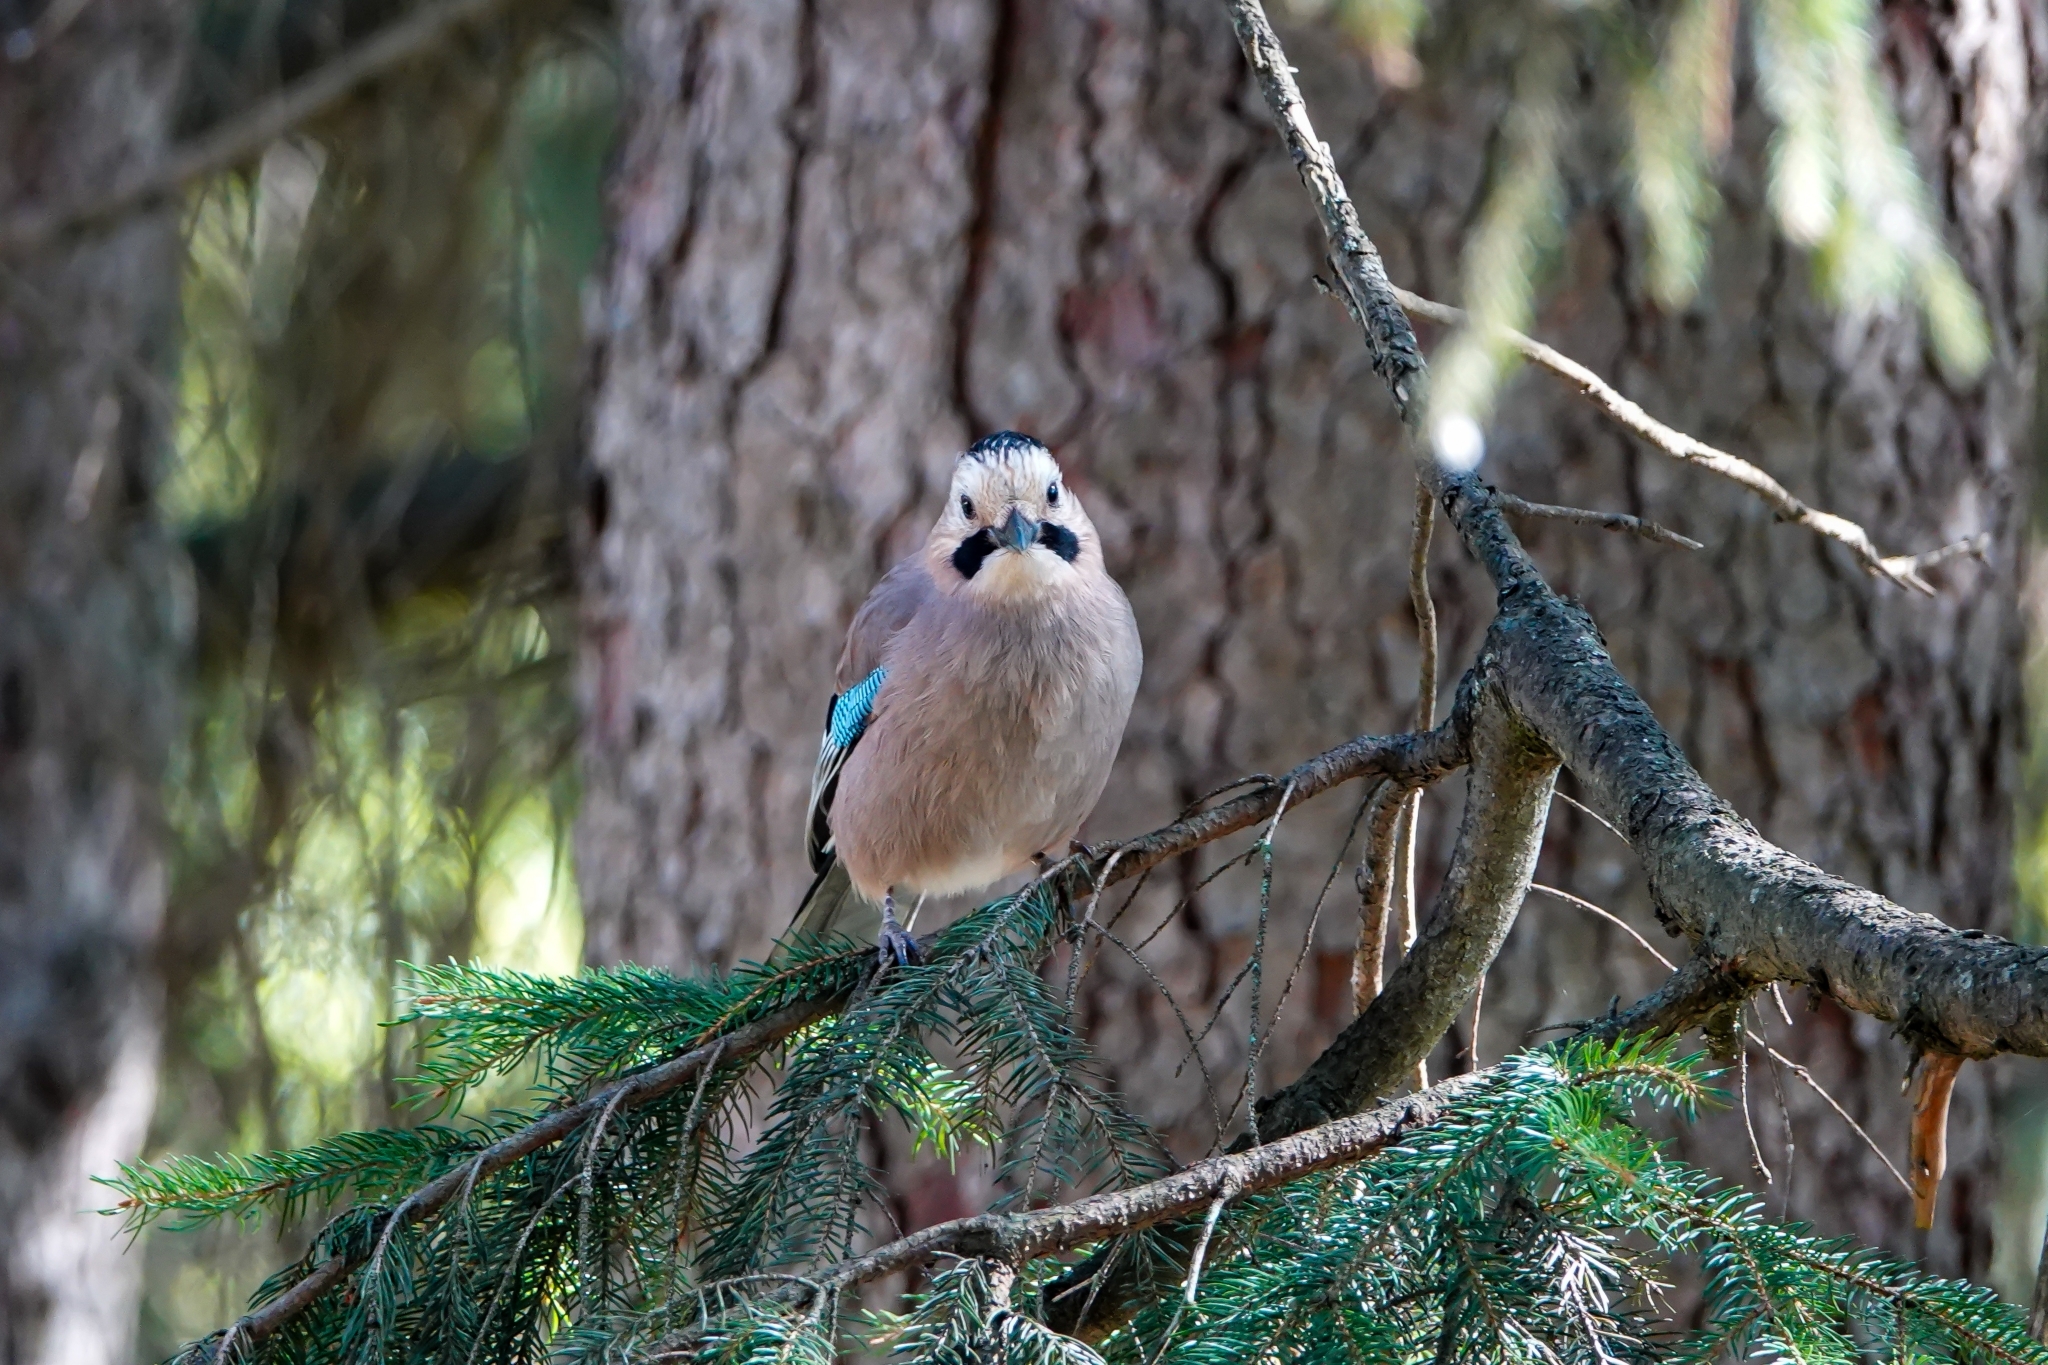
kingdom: Animalia
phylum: Chordata
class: Aves
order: Passeriformes
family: Corvidae
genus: Garrulus
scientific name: Garrulus glandarius
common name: Eurasian jay
